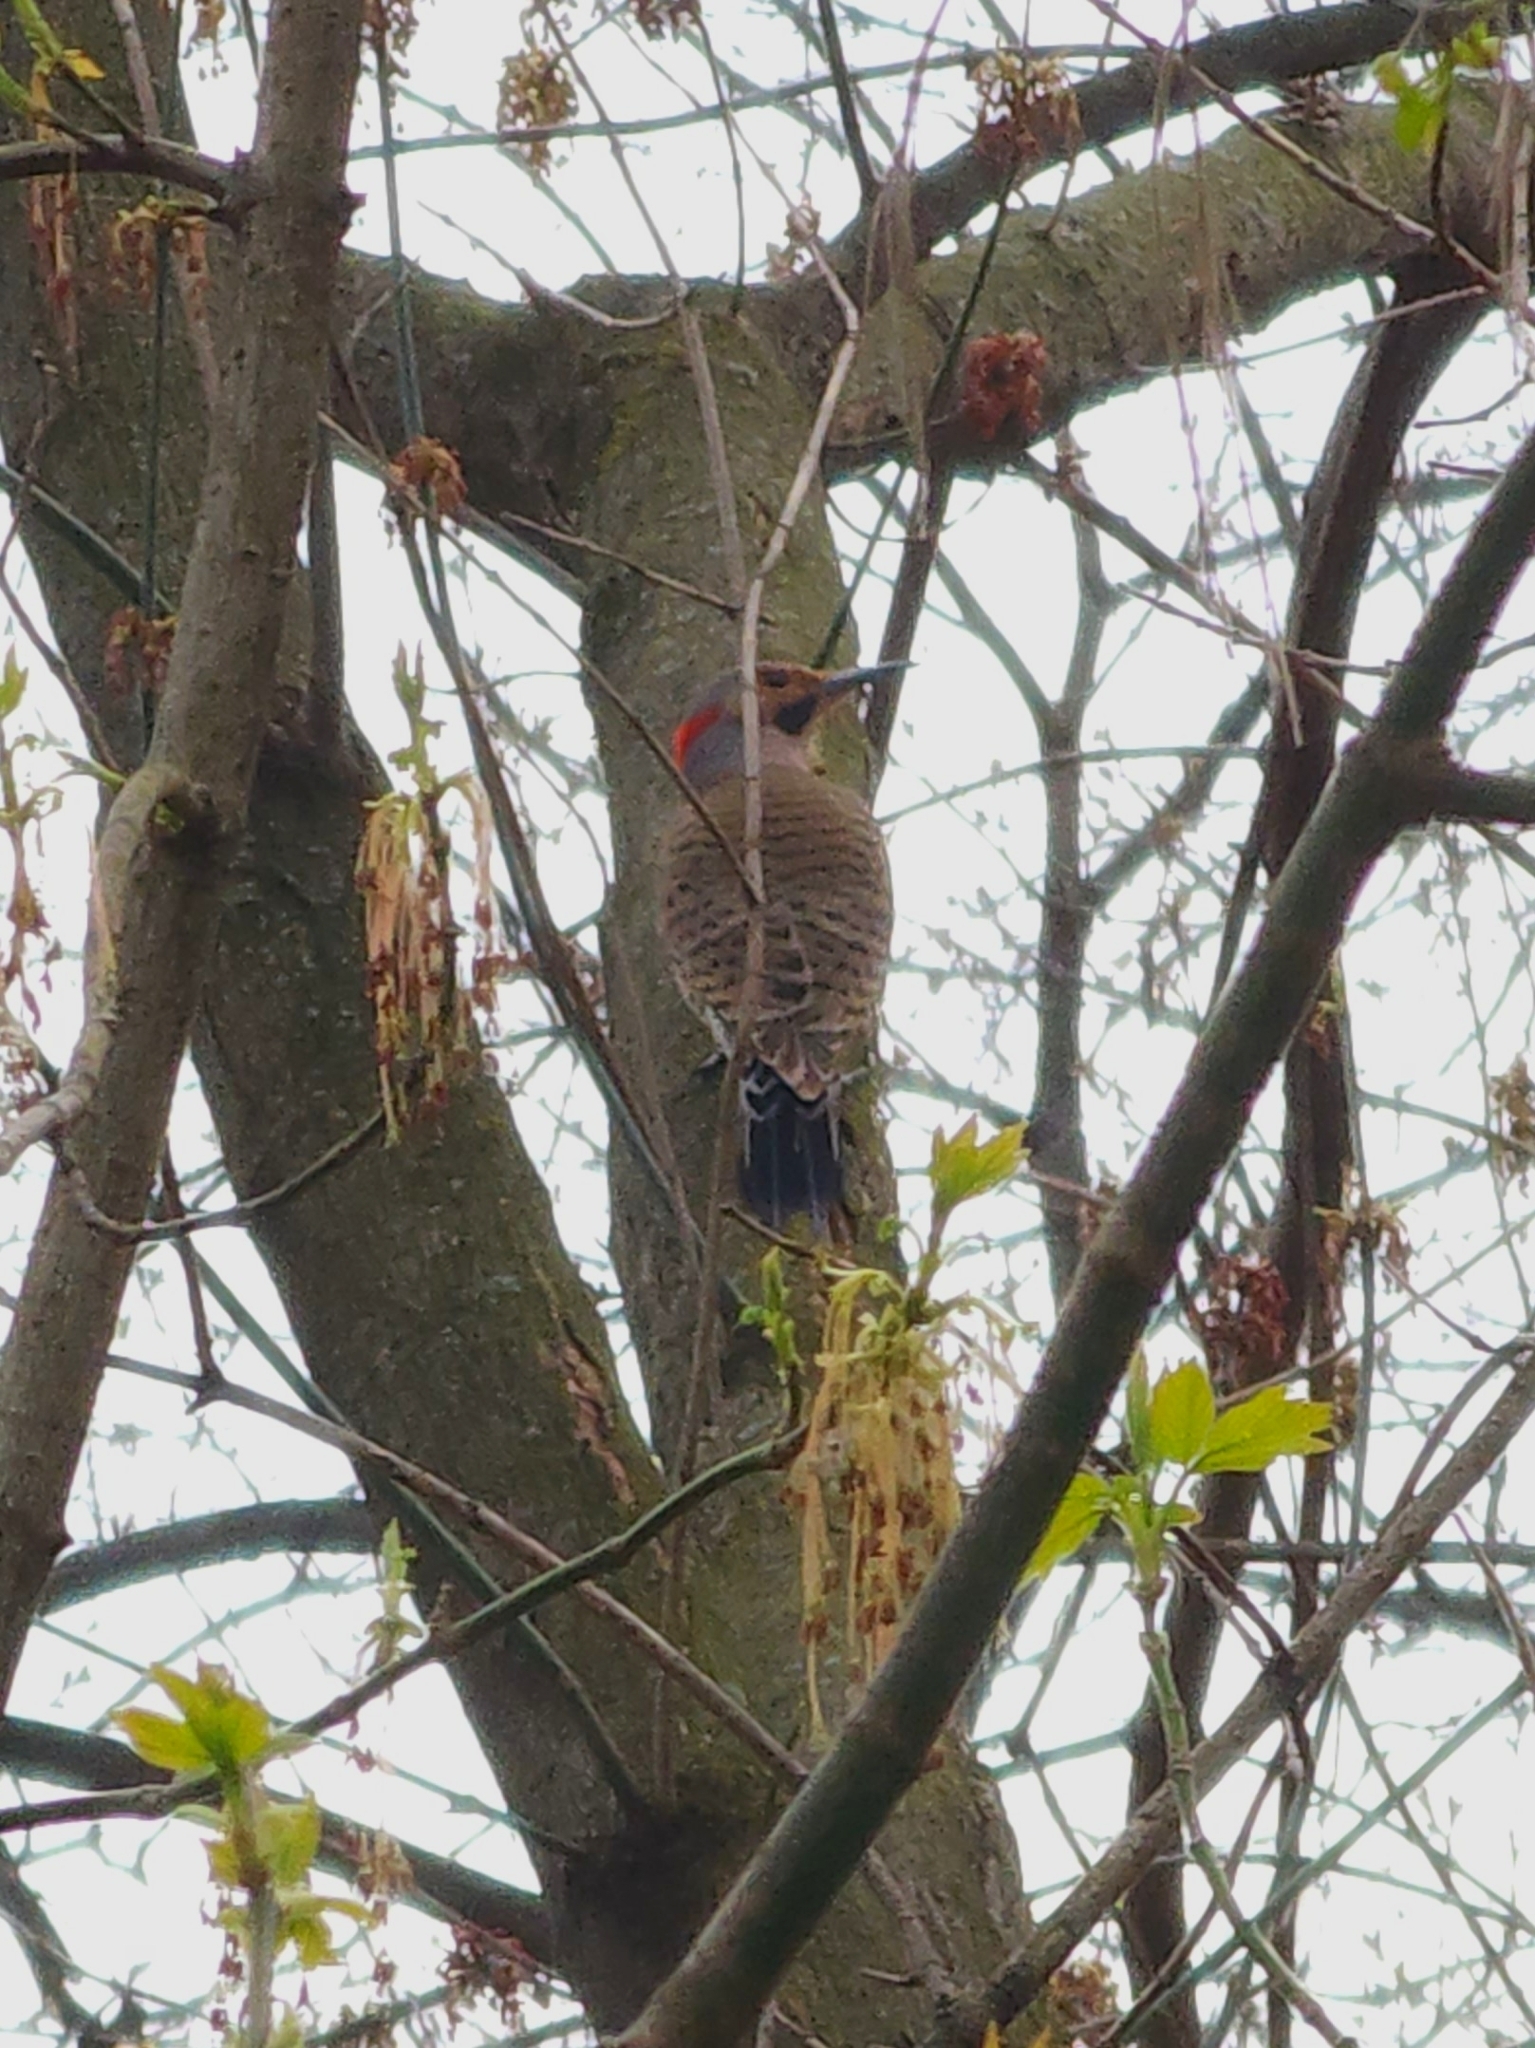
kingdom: Animalia
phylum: Chordata
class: Aves
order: Piciformes
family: Picidae
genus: Colaptes
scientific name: Colaptes auratus
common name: Northern flicker
